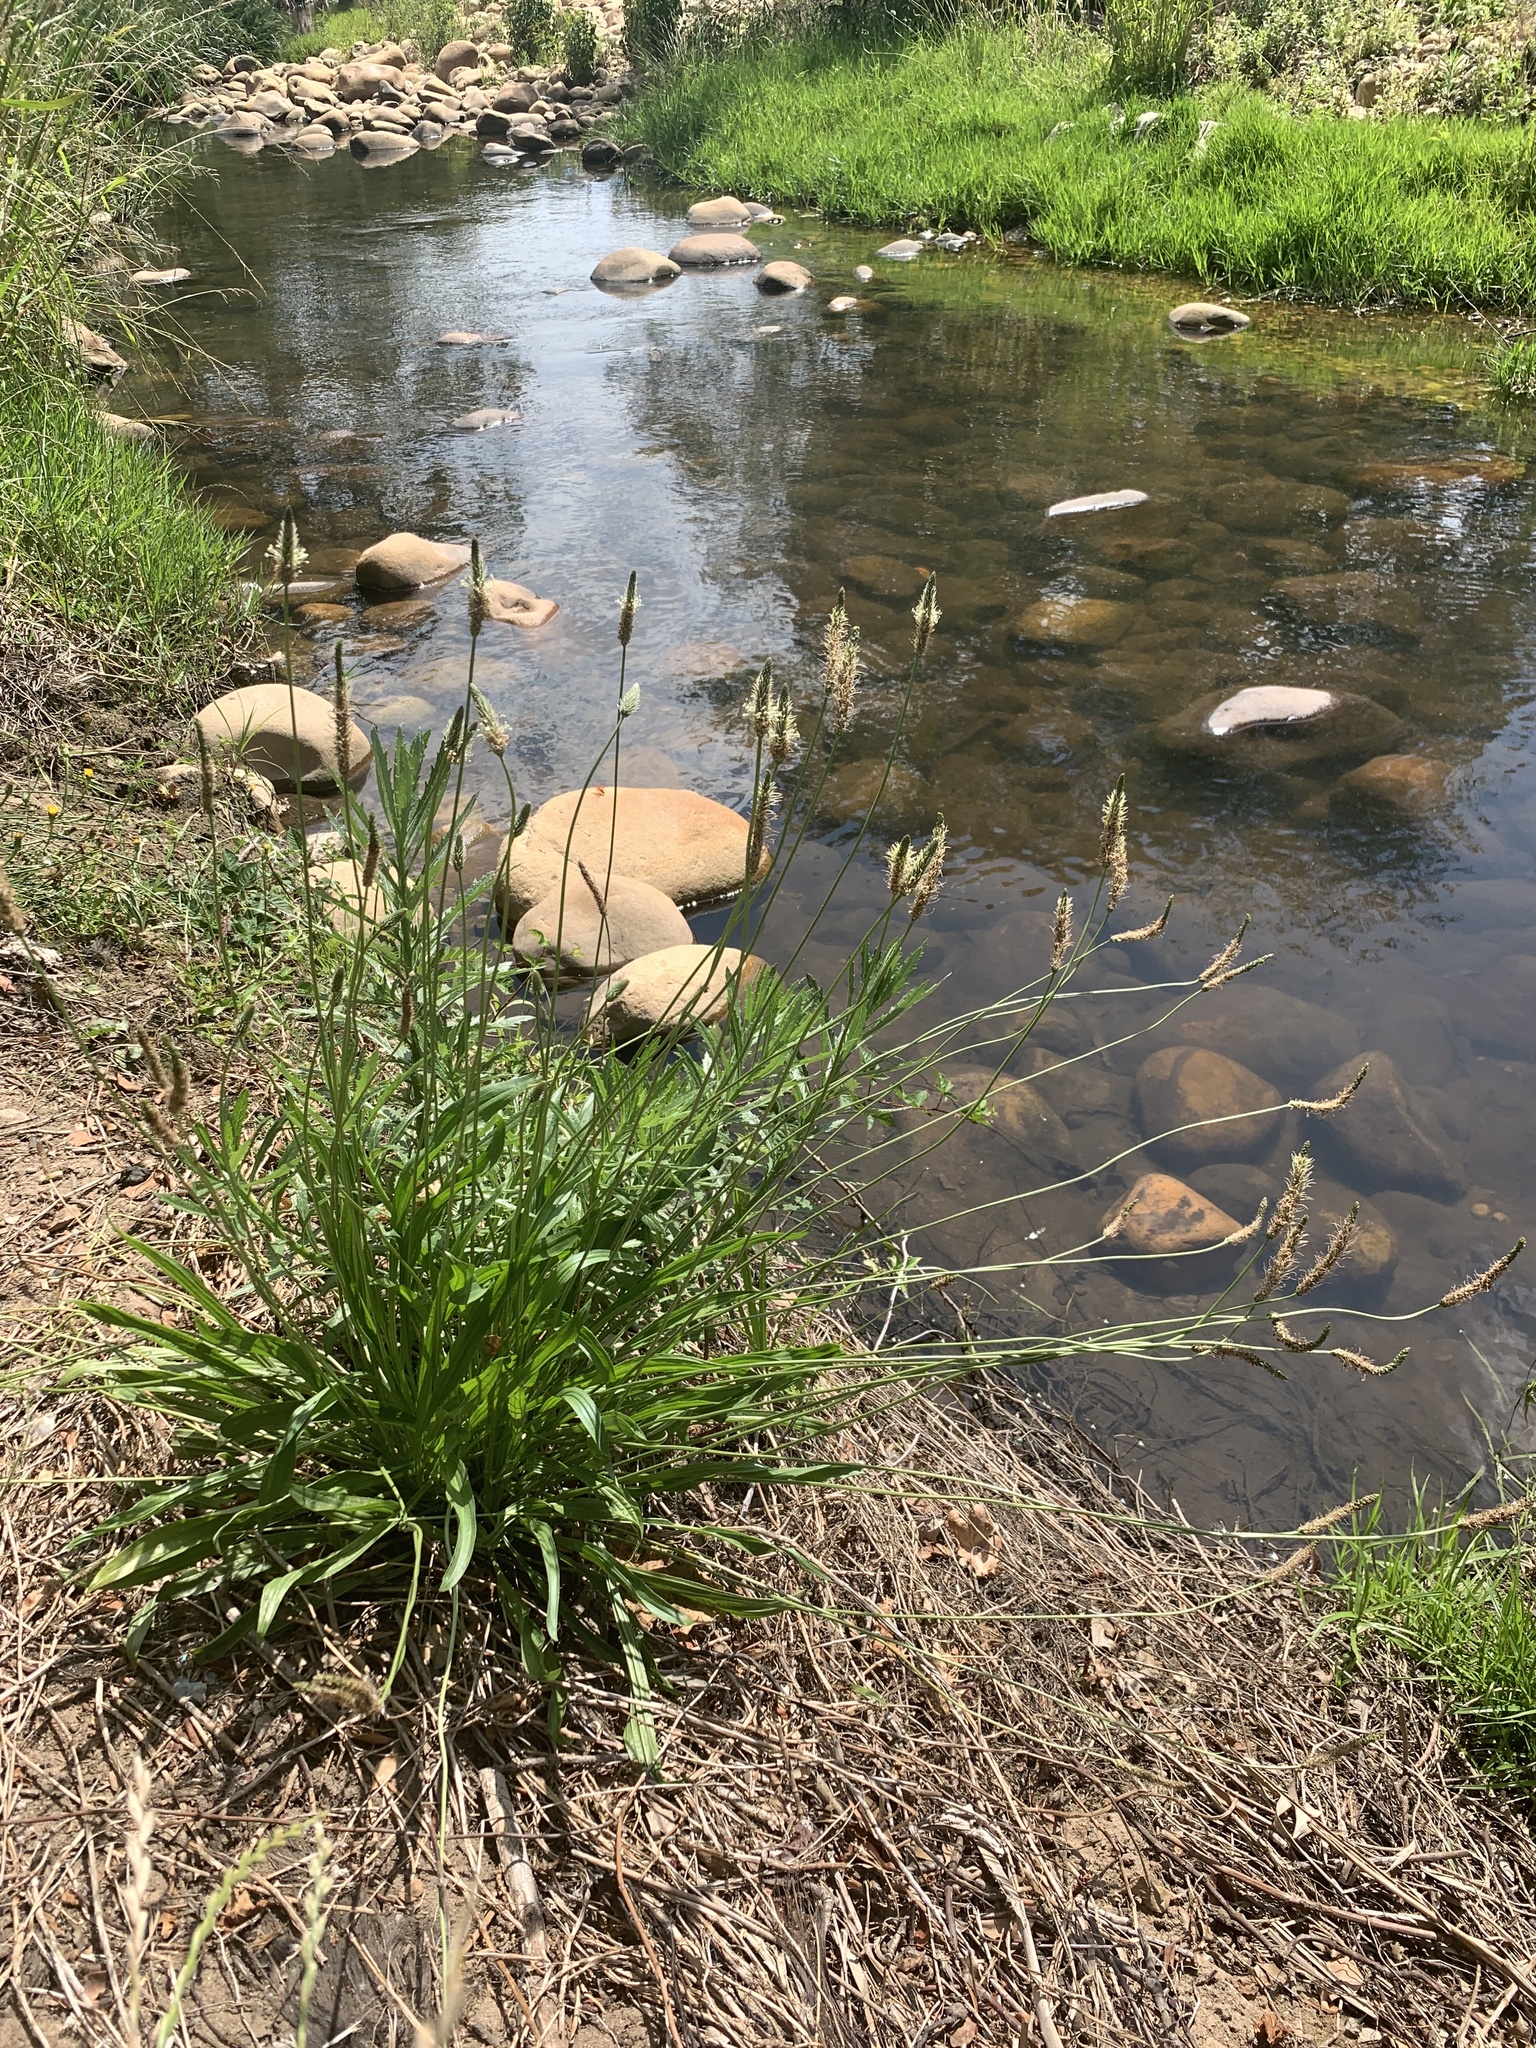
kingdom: Plantae
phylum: Tracheophyta
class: Magnoliopsida
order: Lamiales
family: Plantaginaceae
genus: Plantago
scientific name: Plantago lanceolata
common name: Ribwort plantain
